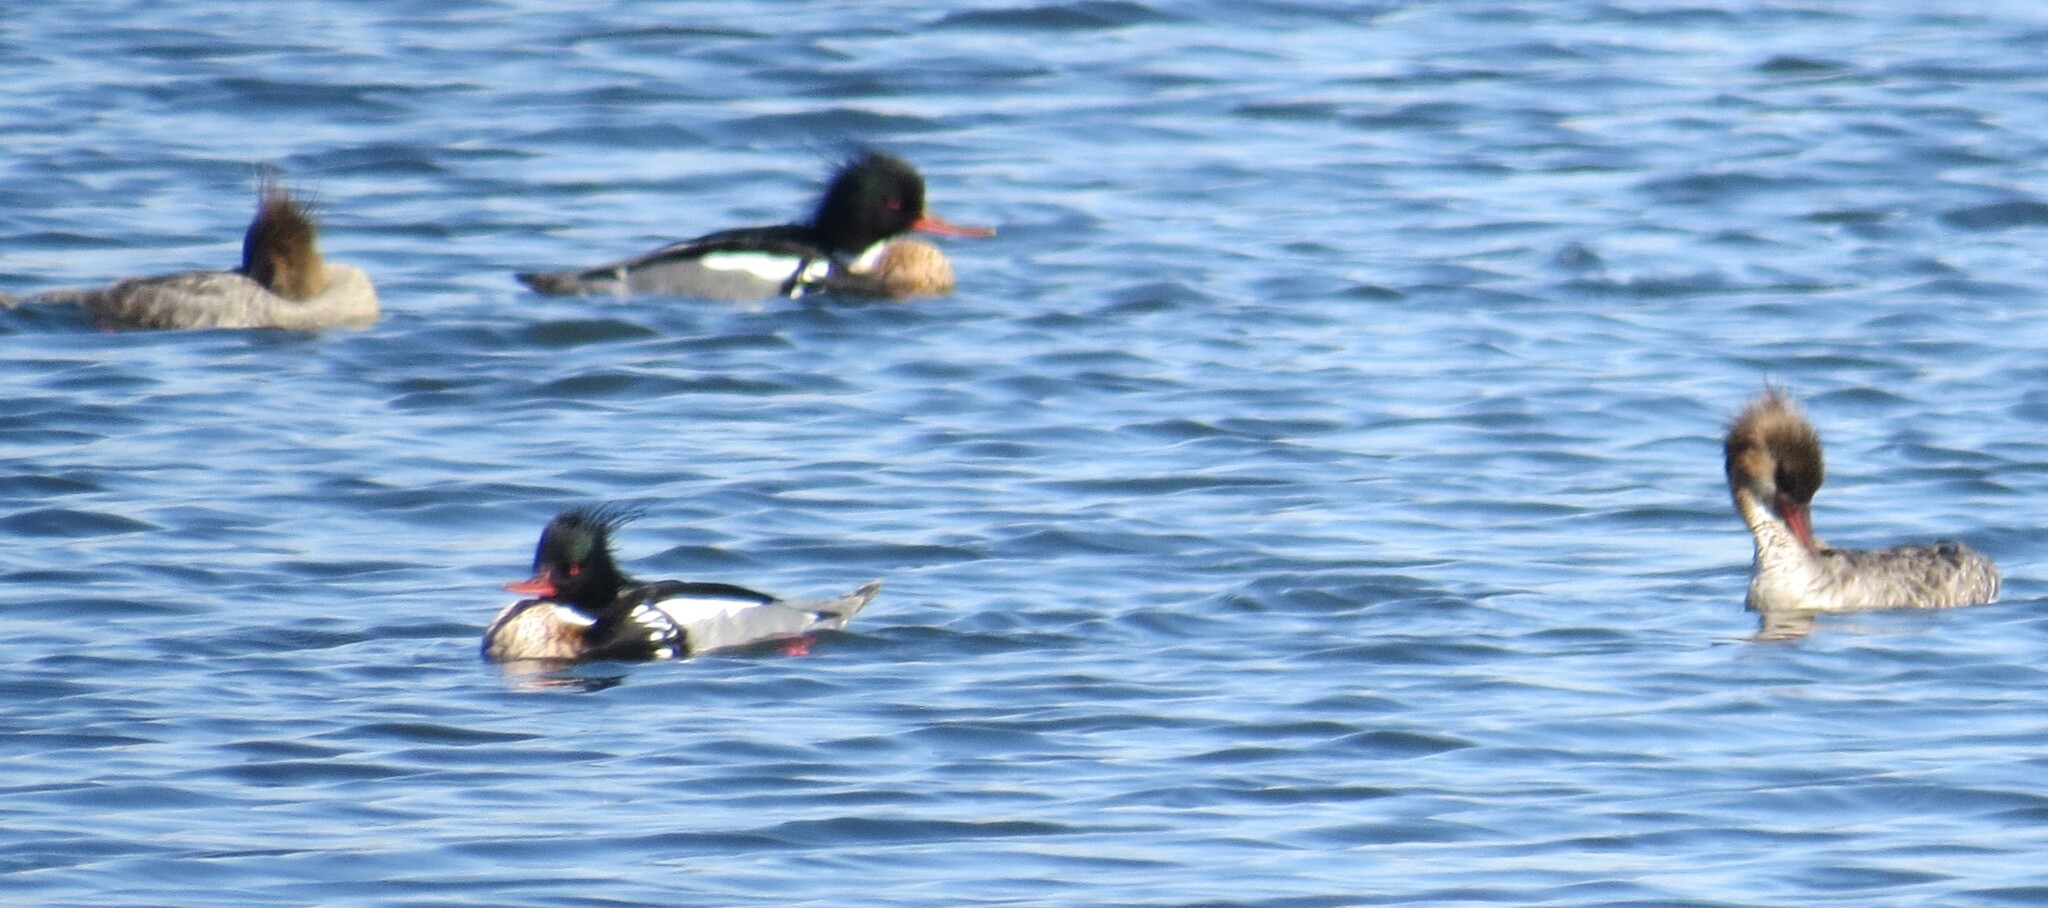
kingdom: Animalia
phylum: Chordata
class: Aves
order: Anseriformes
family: Anatidae
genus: Mergus
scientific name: Mergus serrator
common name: Red-breasted merganser
